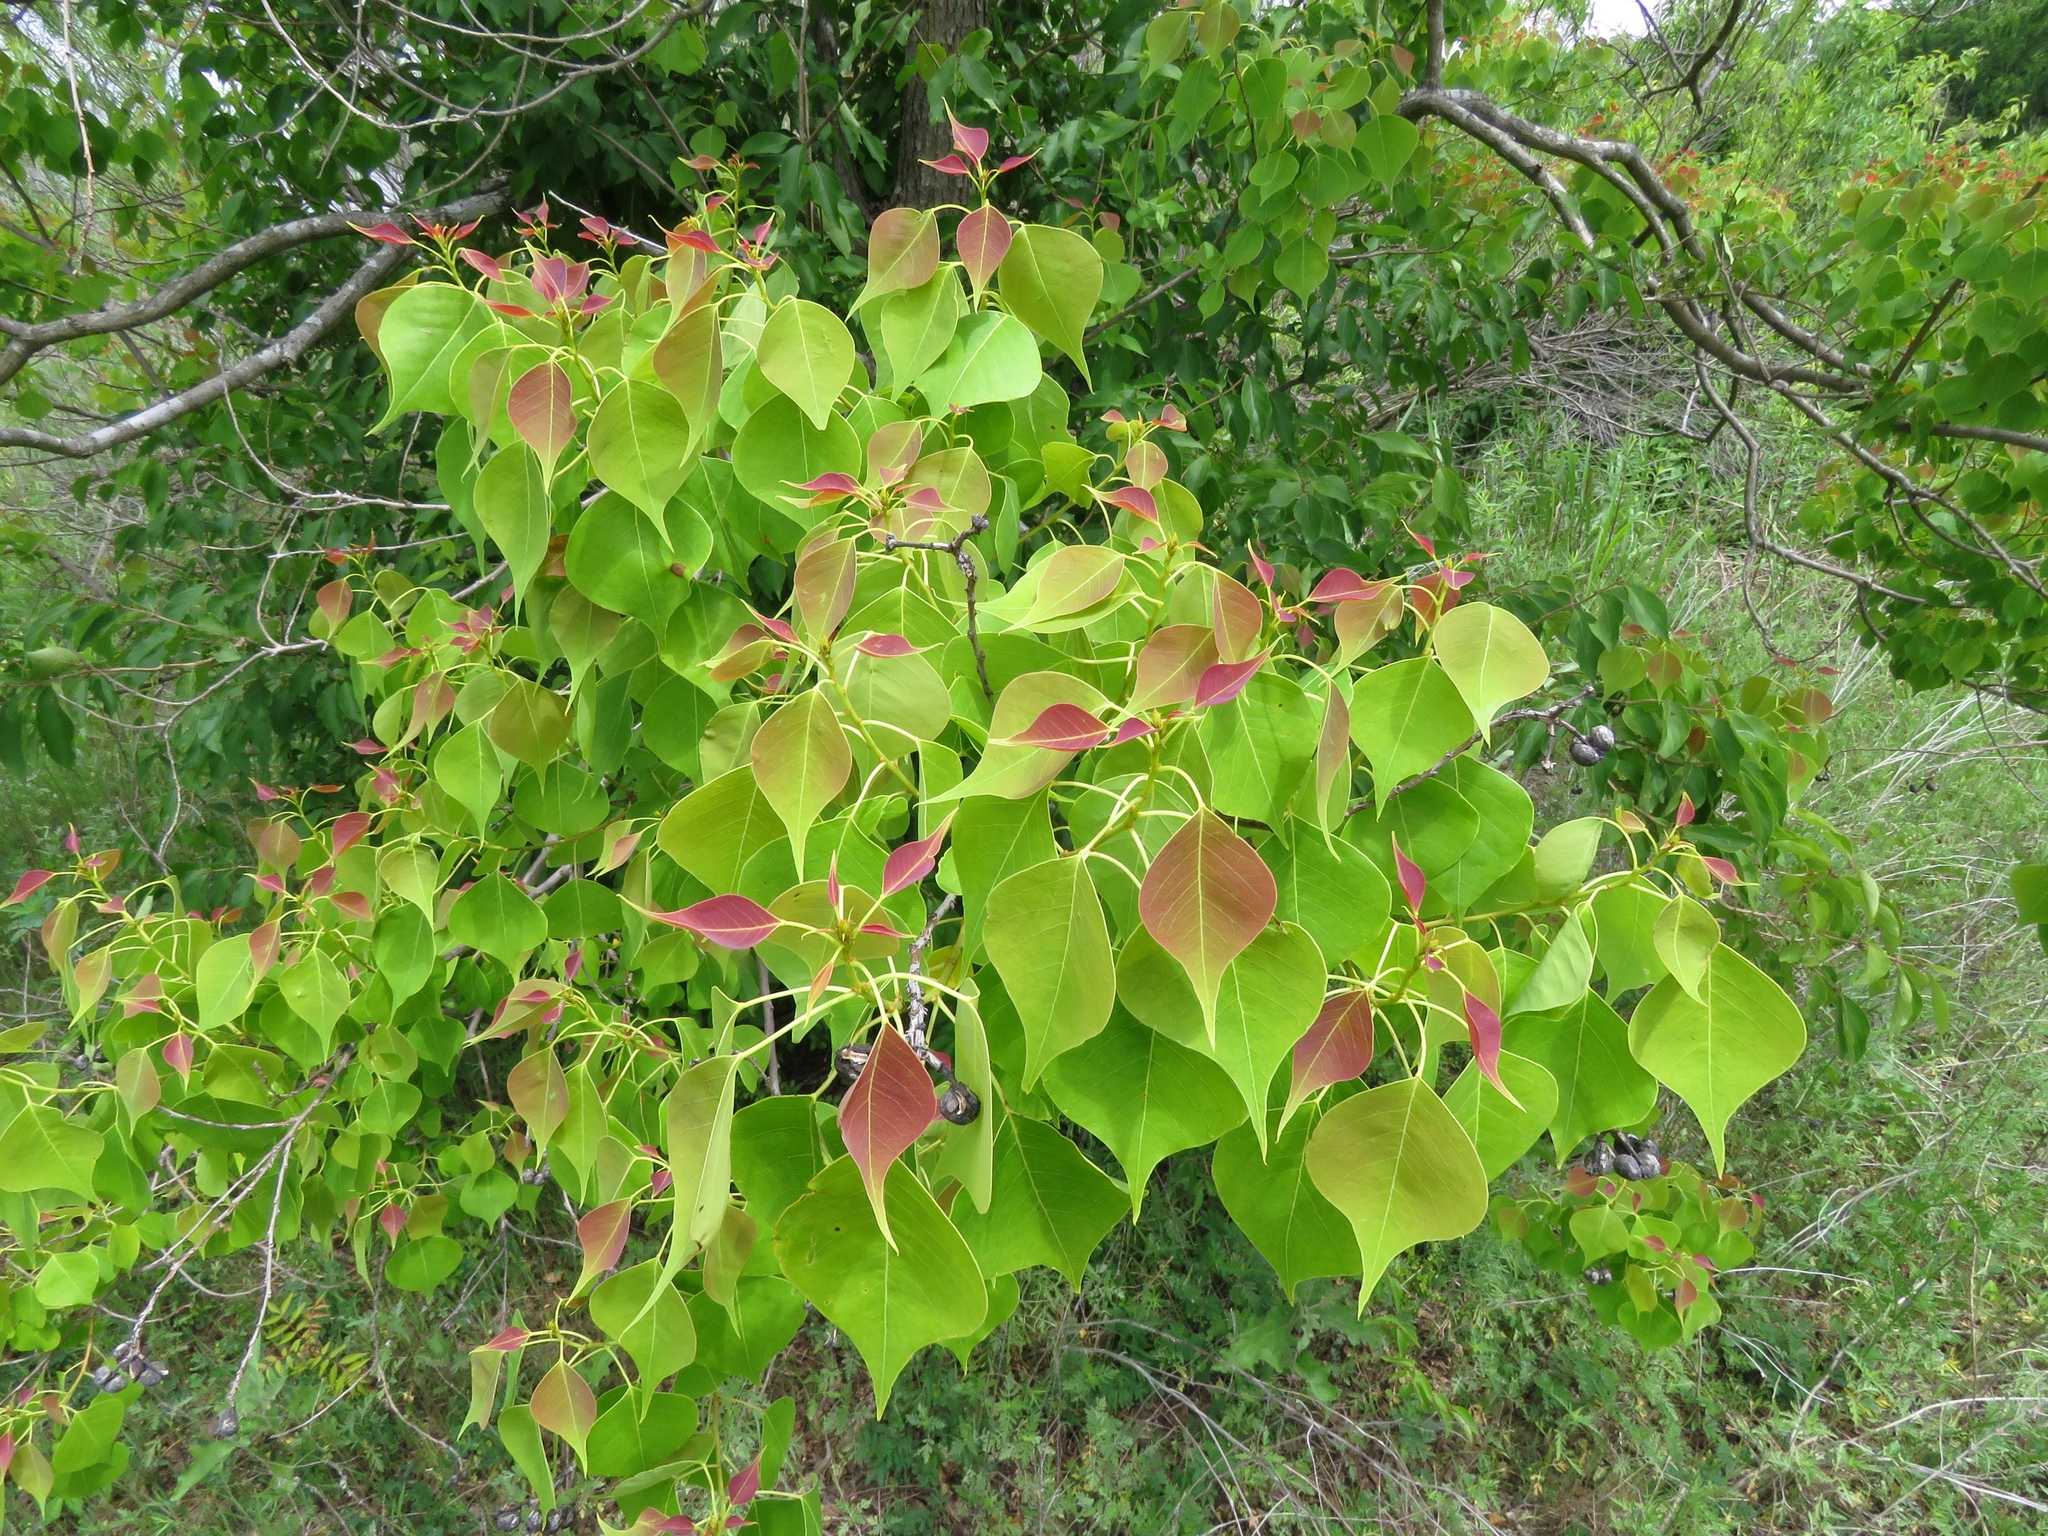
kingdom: Plantae
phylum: Tracheophyta
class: Magnoliopsida
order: Malpighiales
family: Euphorbiaceae
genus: Triadica
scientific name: Triadica sebifera
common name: Chinese tallow
